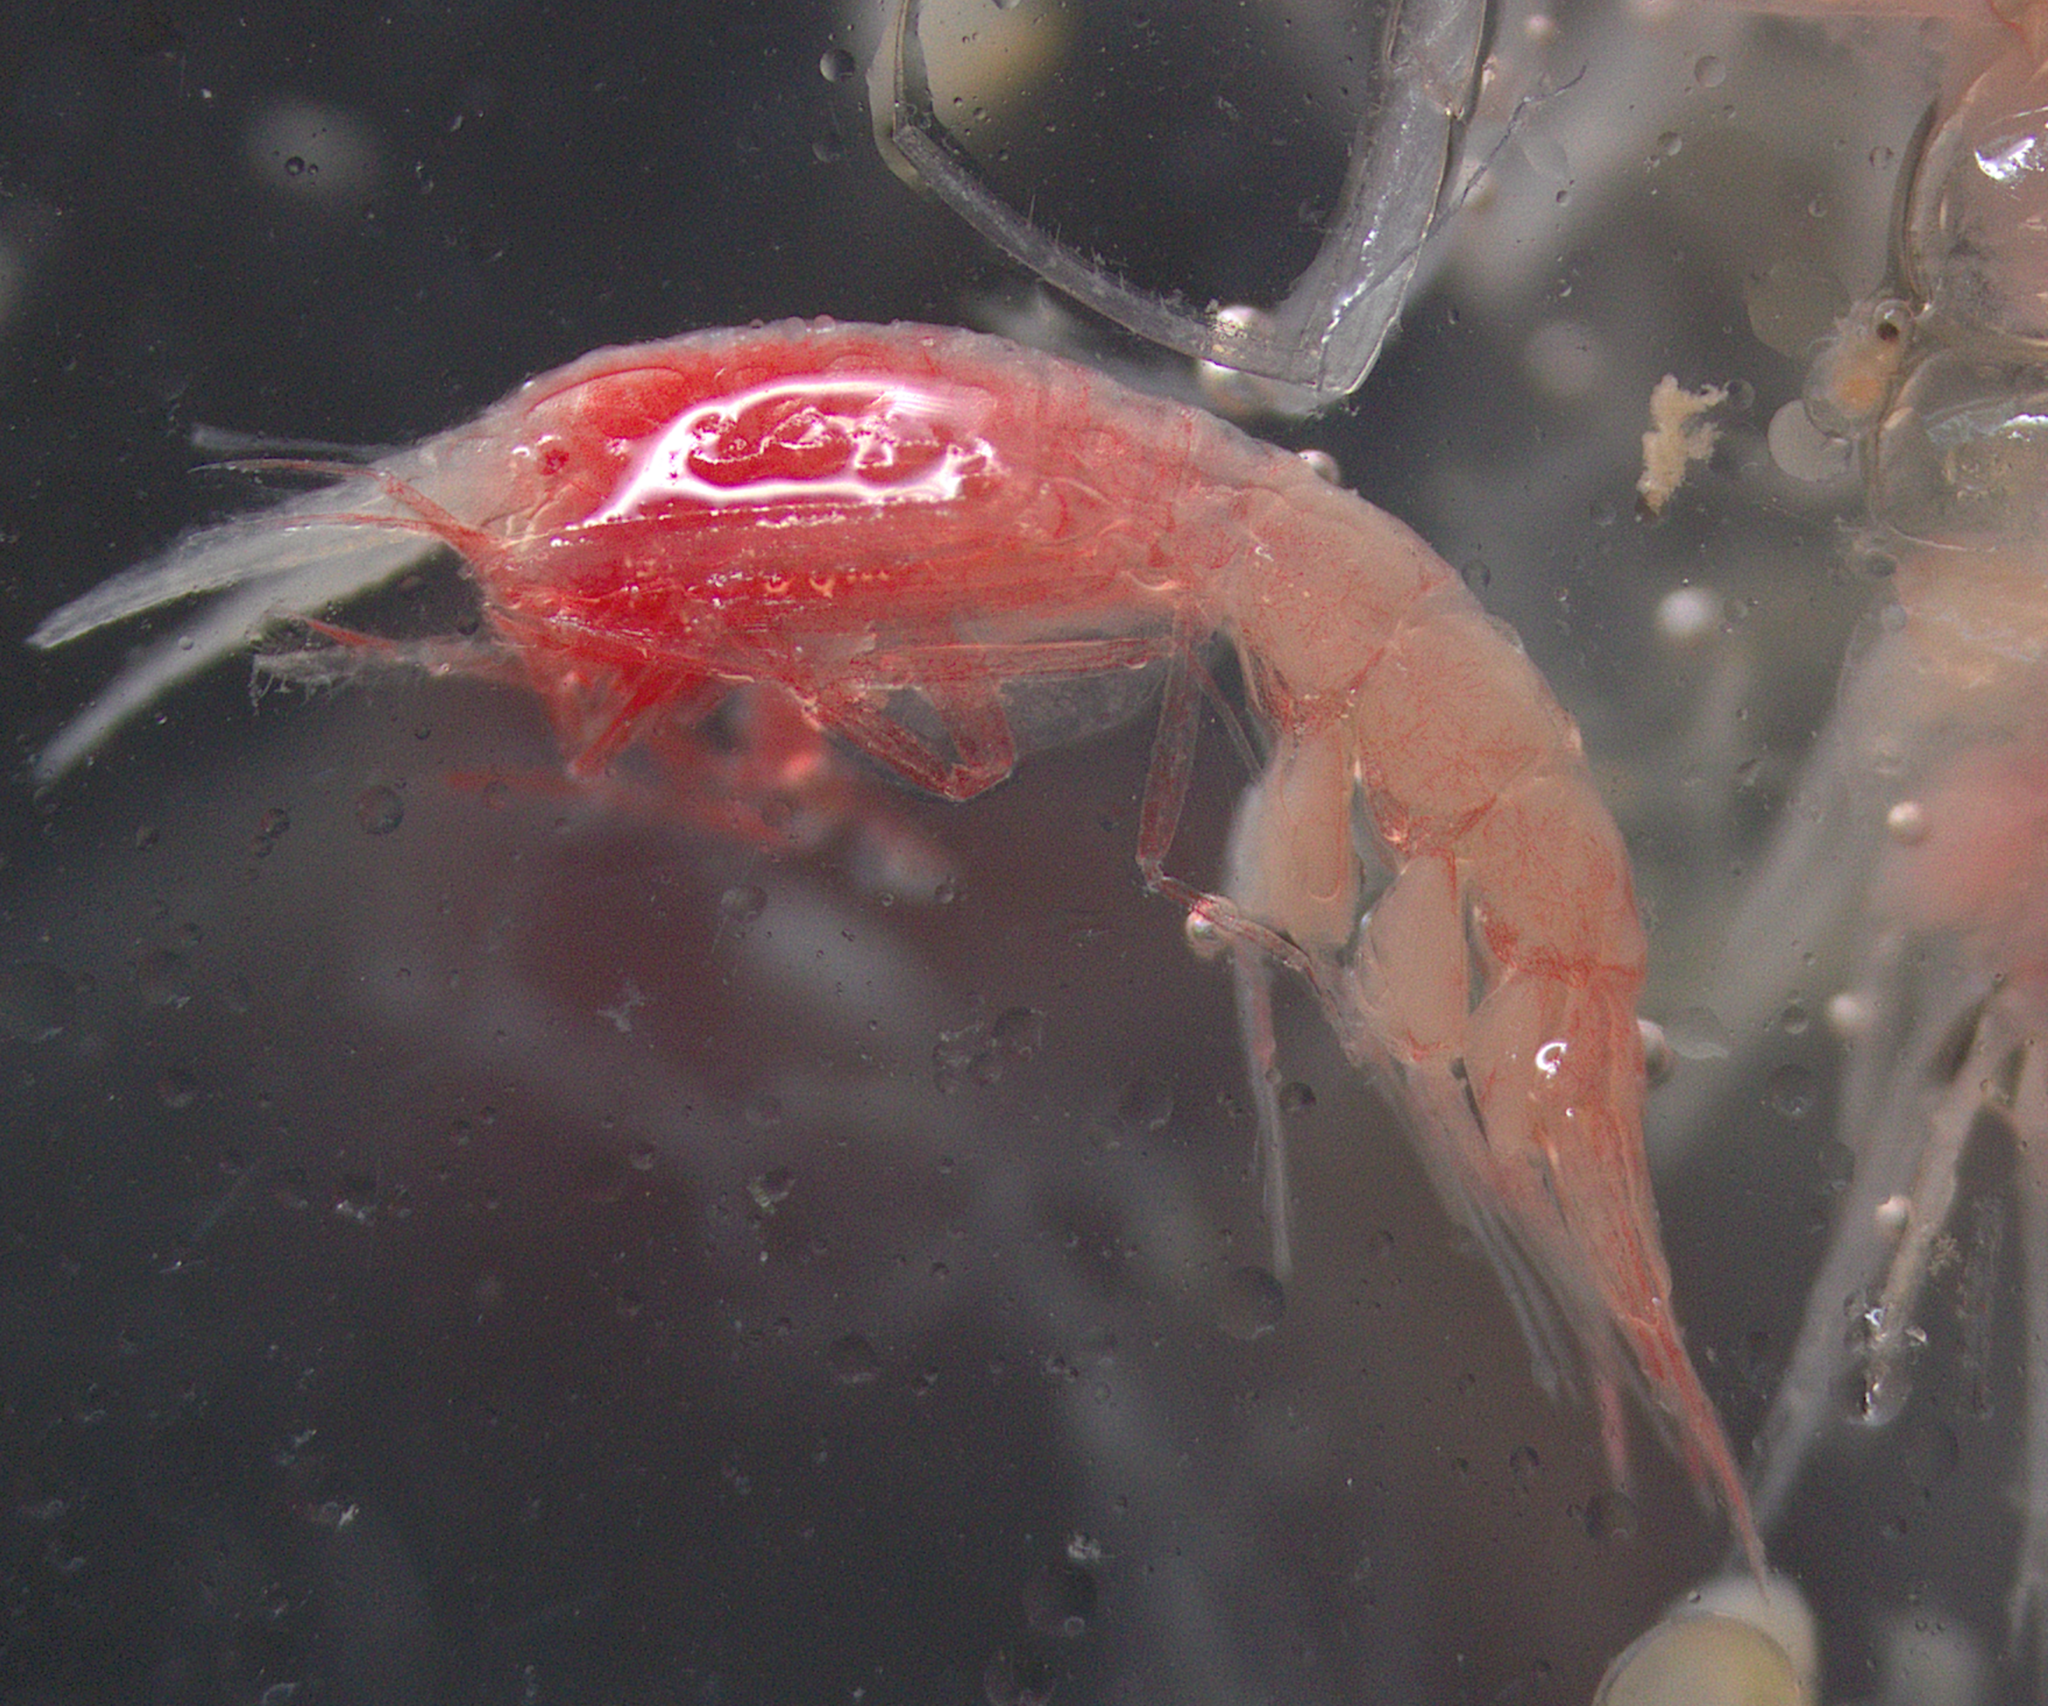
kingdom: Animalia
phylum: Arthropoda
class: Malacostraca
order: Amphipoda
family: Scinidae
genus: Scina
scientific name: Scina borealis
